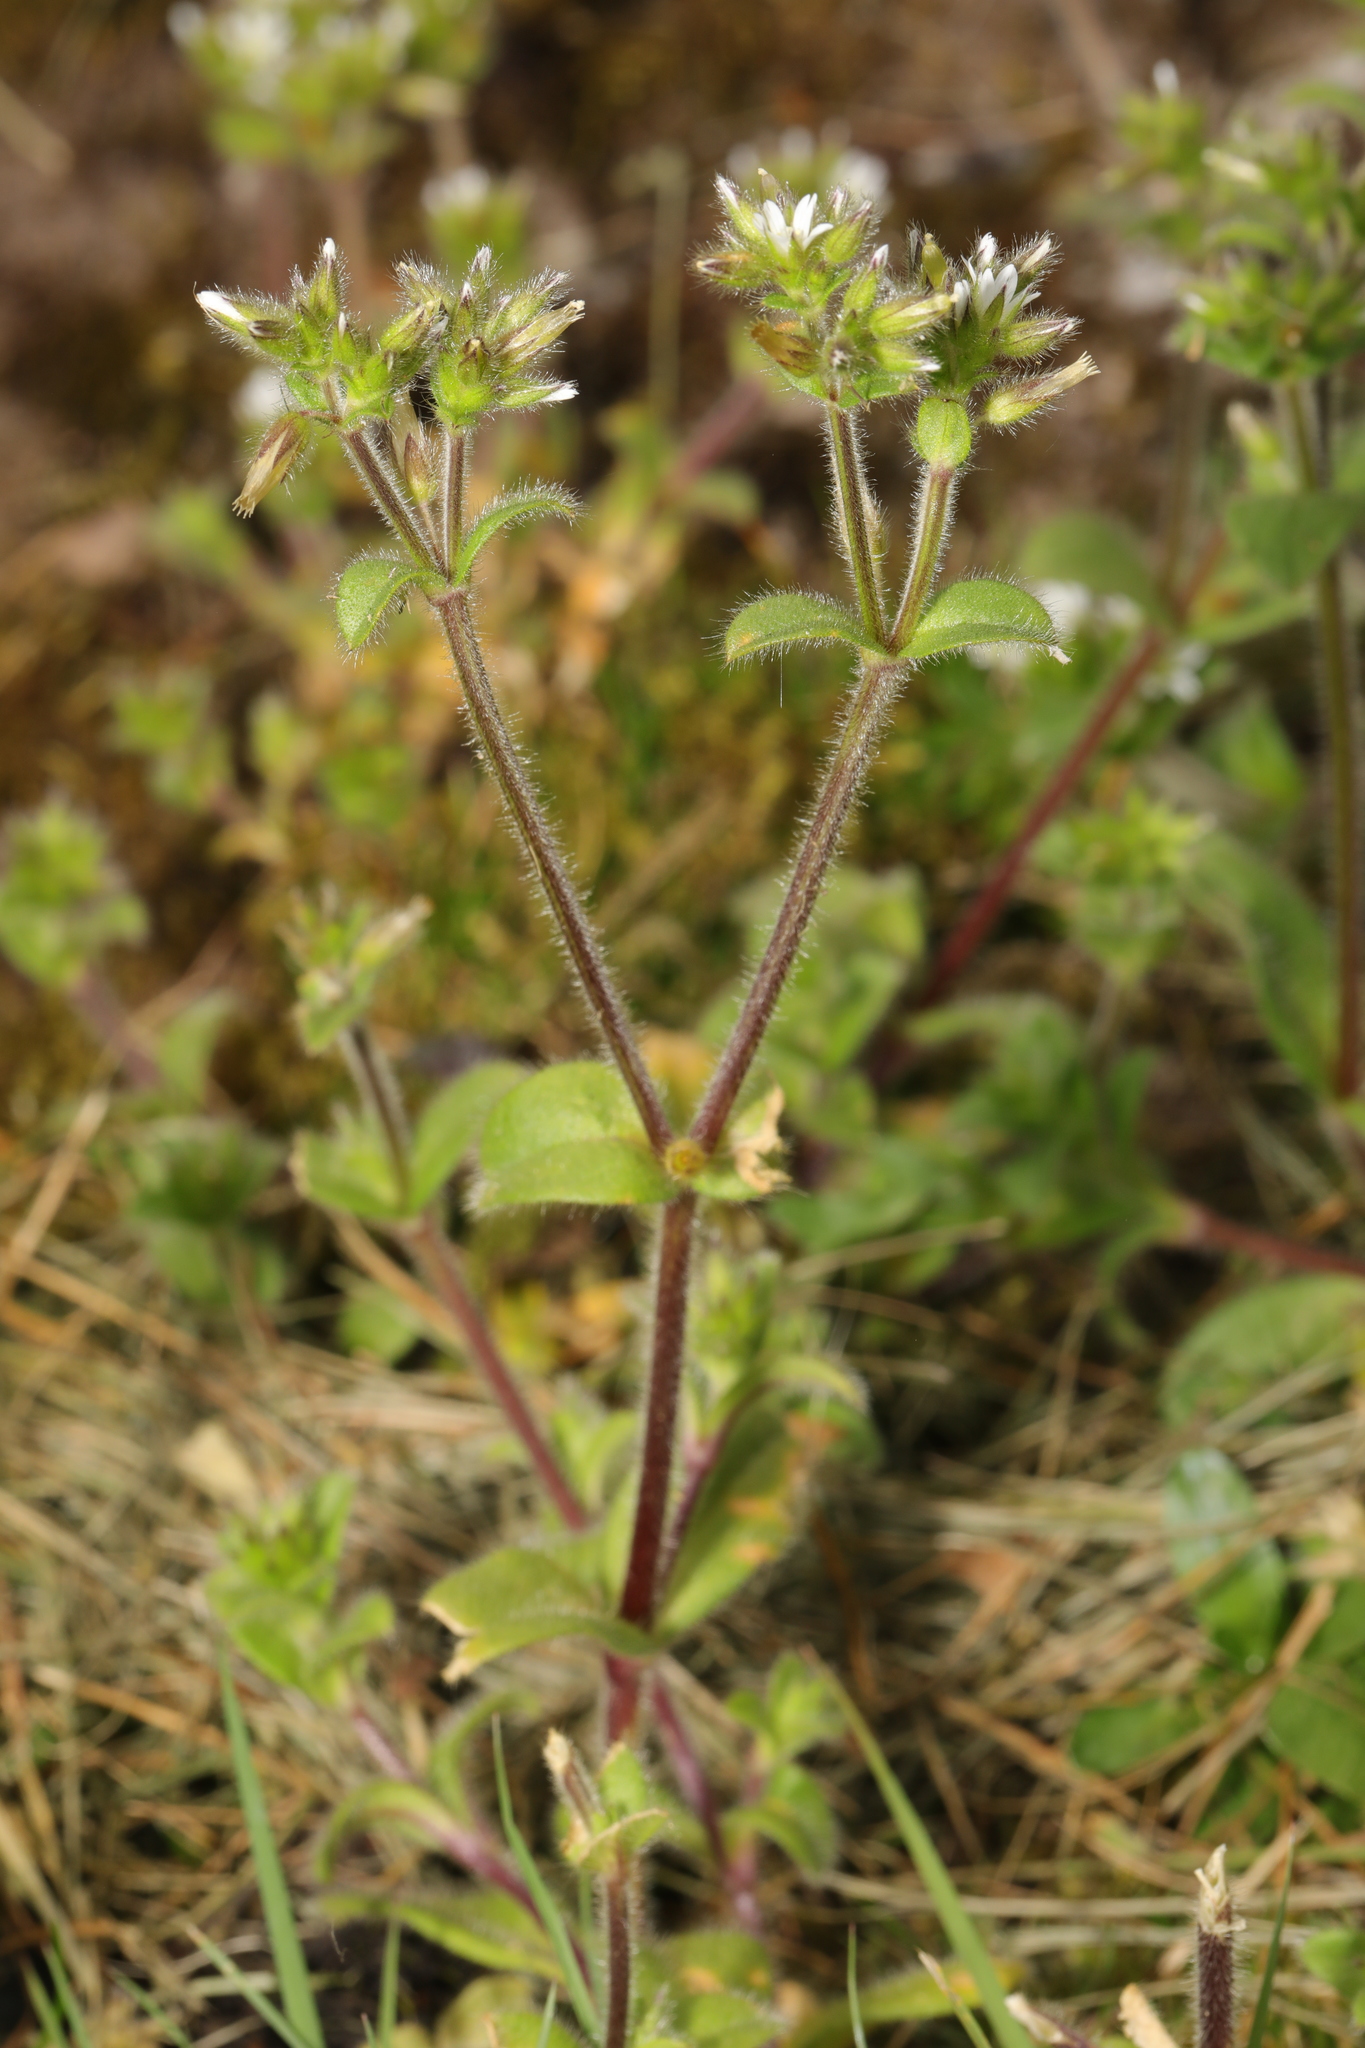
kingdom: Plantae
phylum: Tracheophyta
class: Magnoliopsida
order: Caryophyllales
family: Caryophyllaceae
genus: Cerastium
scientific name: Cerastium glomeratum
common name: Sticky chickweed
